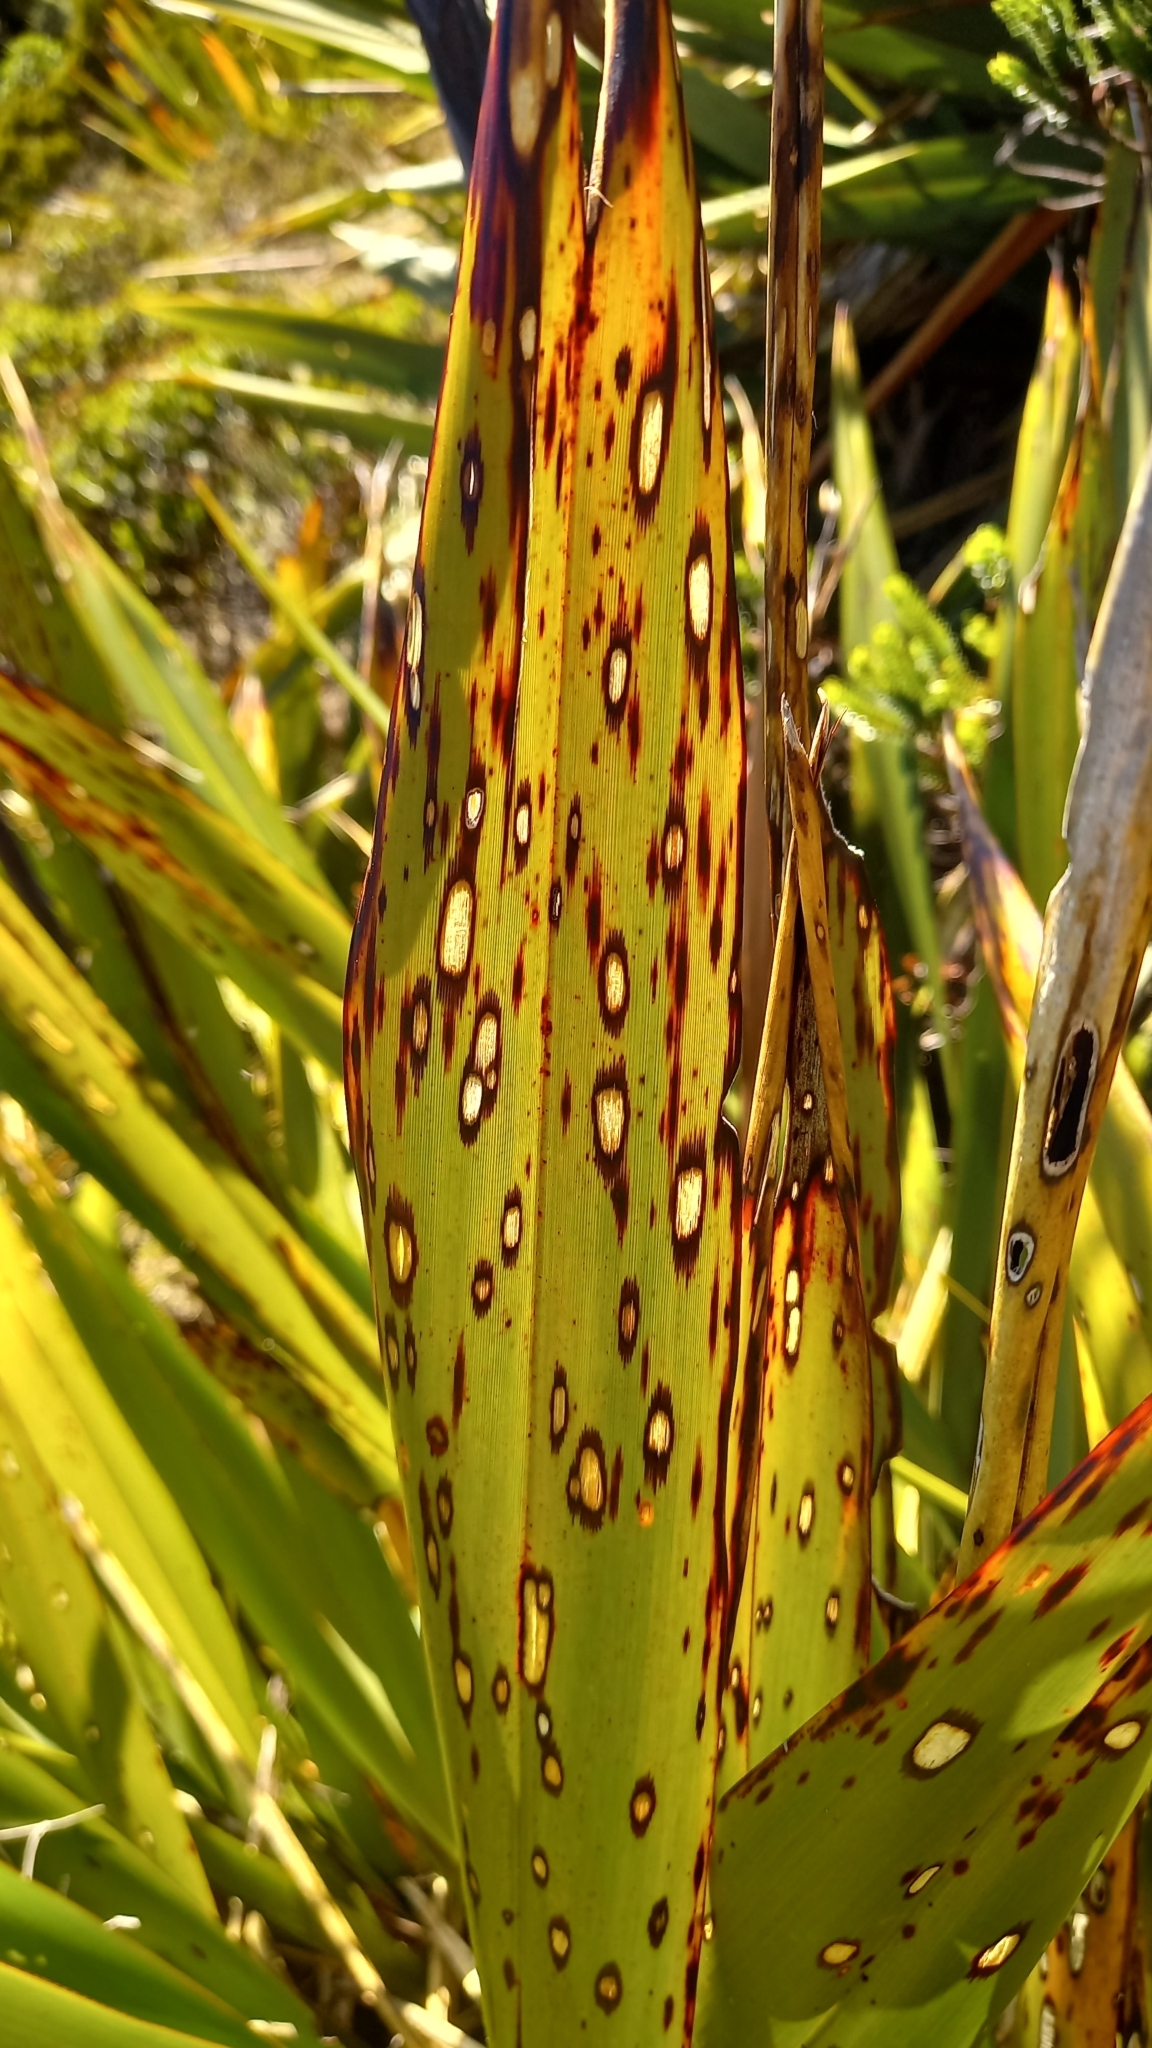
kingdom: Animalia
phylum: Arthropoda
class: Insecta
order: Lepidoptera
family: Geometridae
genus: Orthoclydon
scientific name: Orthoclydon praefectata
